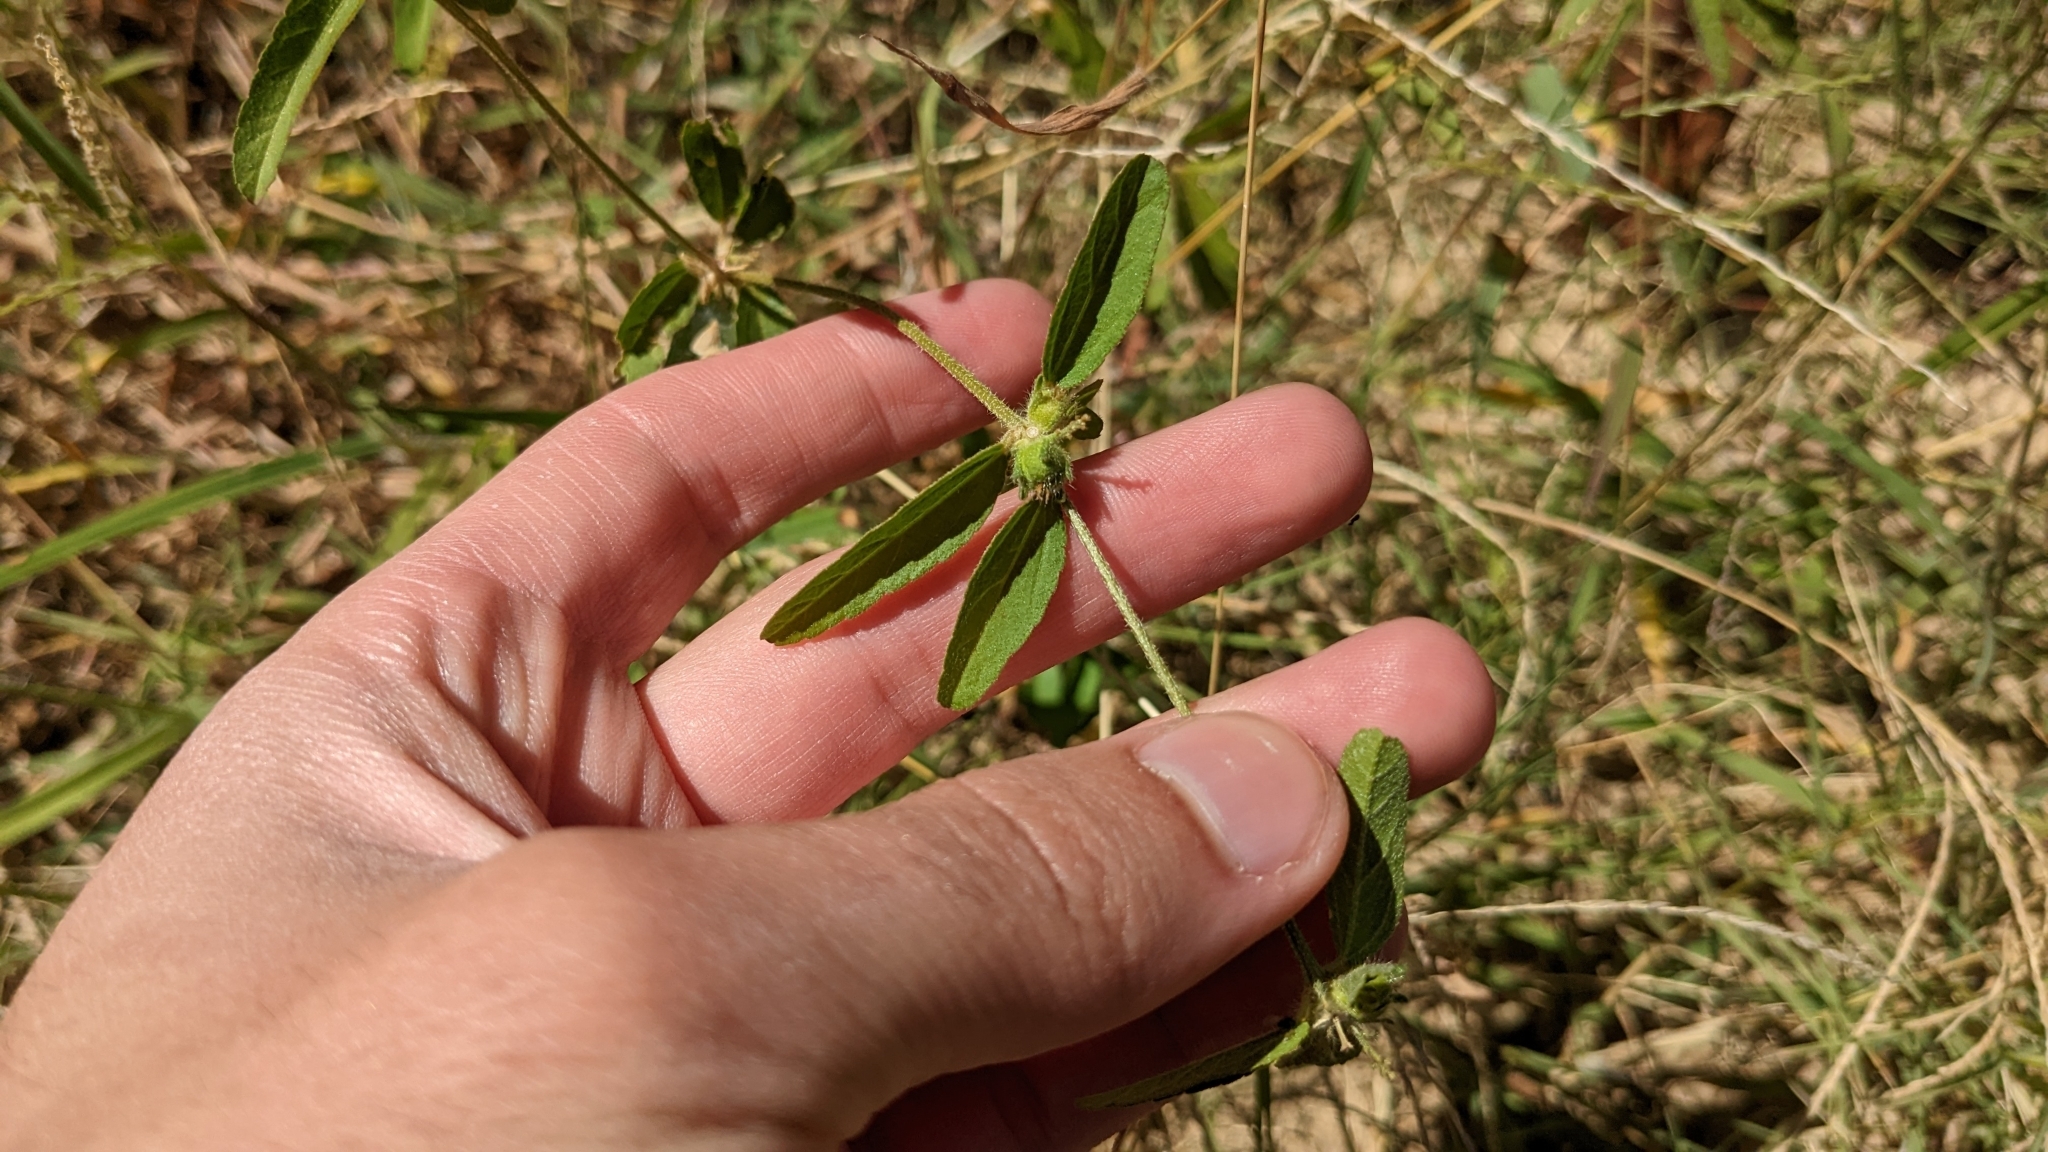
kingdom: Plantae
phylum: Tracheophyta
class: Magnoliopsida
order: Malpighiales
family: Euphorbiaceae
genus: Croton
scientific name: Croton glandulosus
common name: Tropic croton
